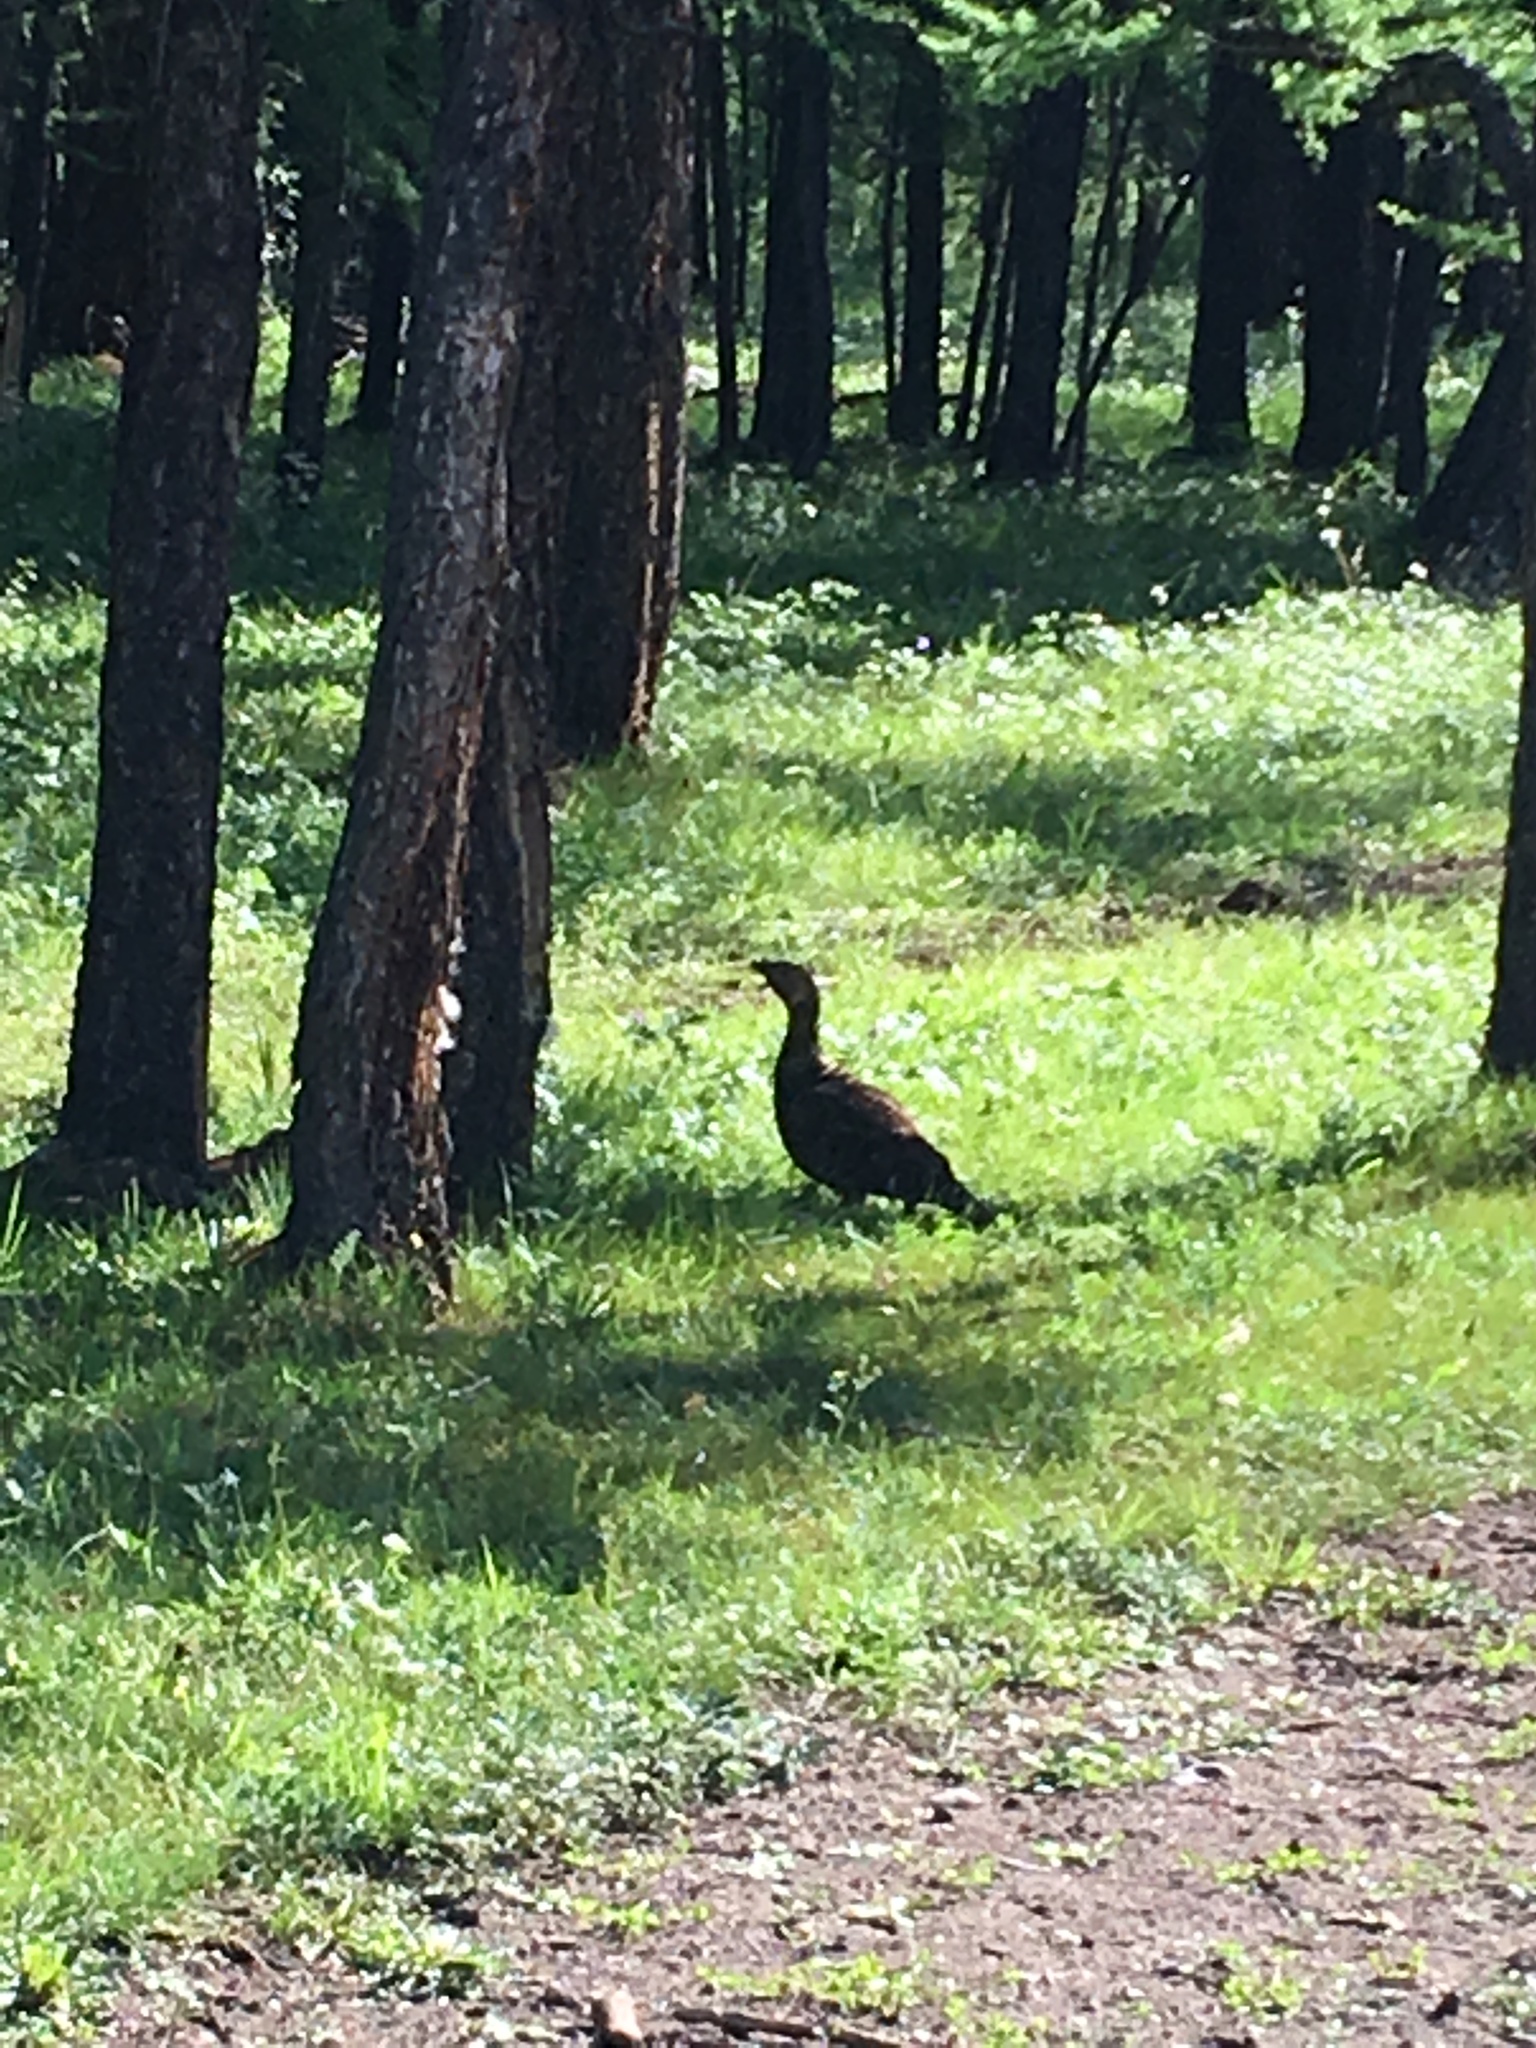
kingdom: Animalia
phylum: Chordata
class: Aves
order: Galliformes
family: Phasianidae
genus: Tetrao
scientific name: Tetrao urogalloides
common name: Black-billed capercaillie
